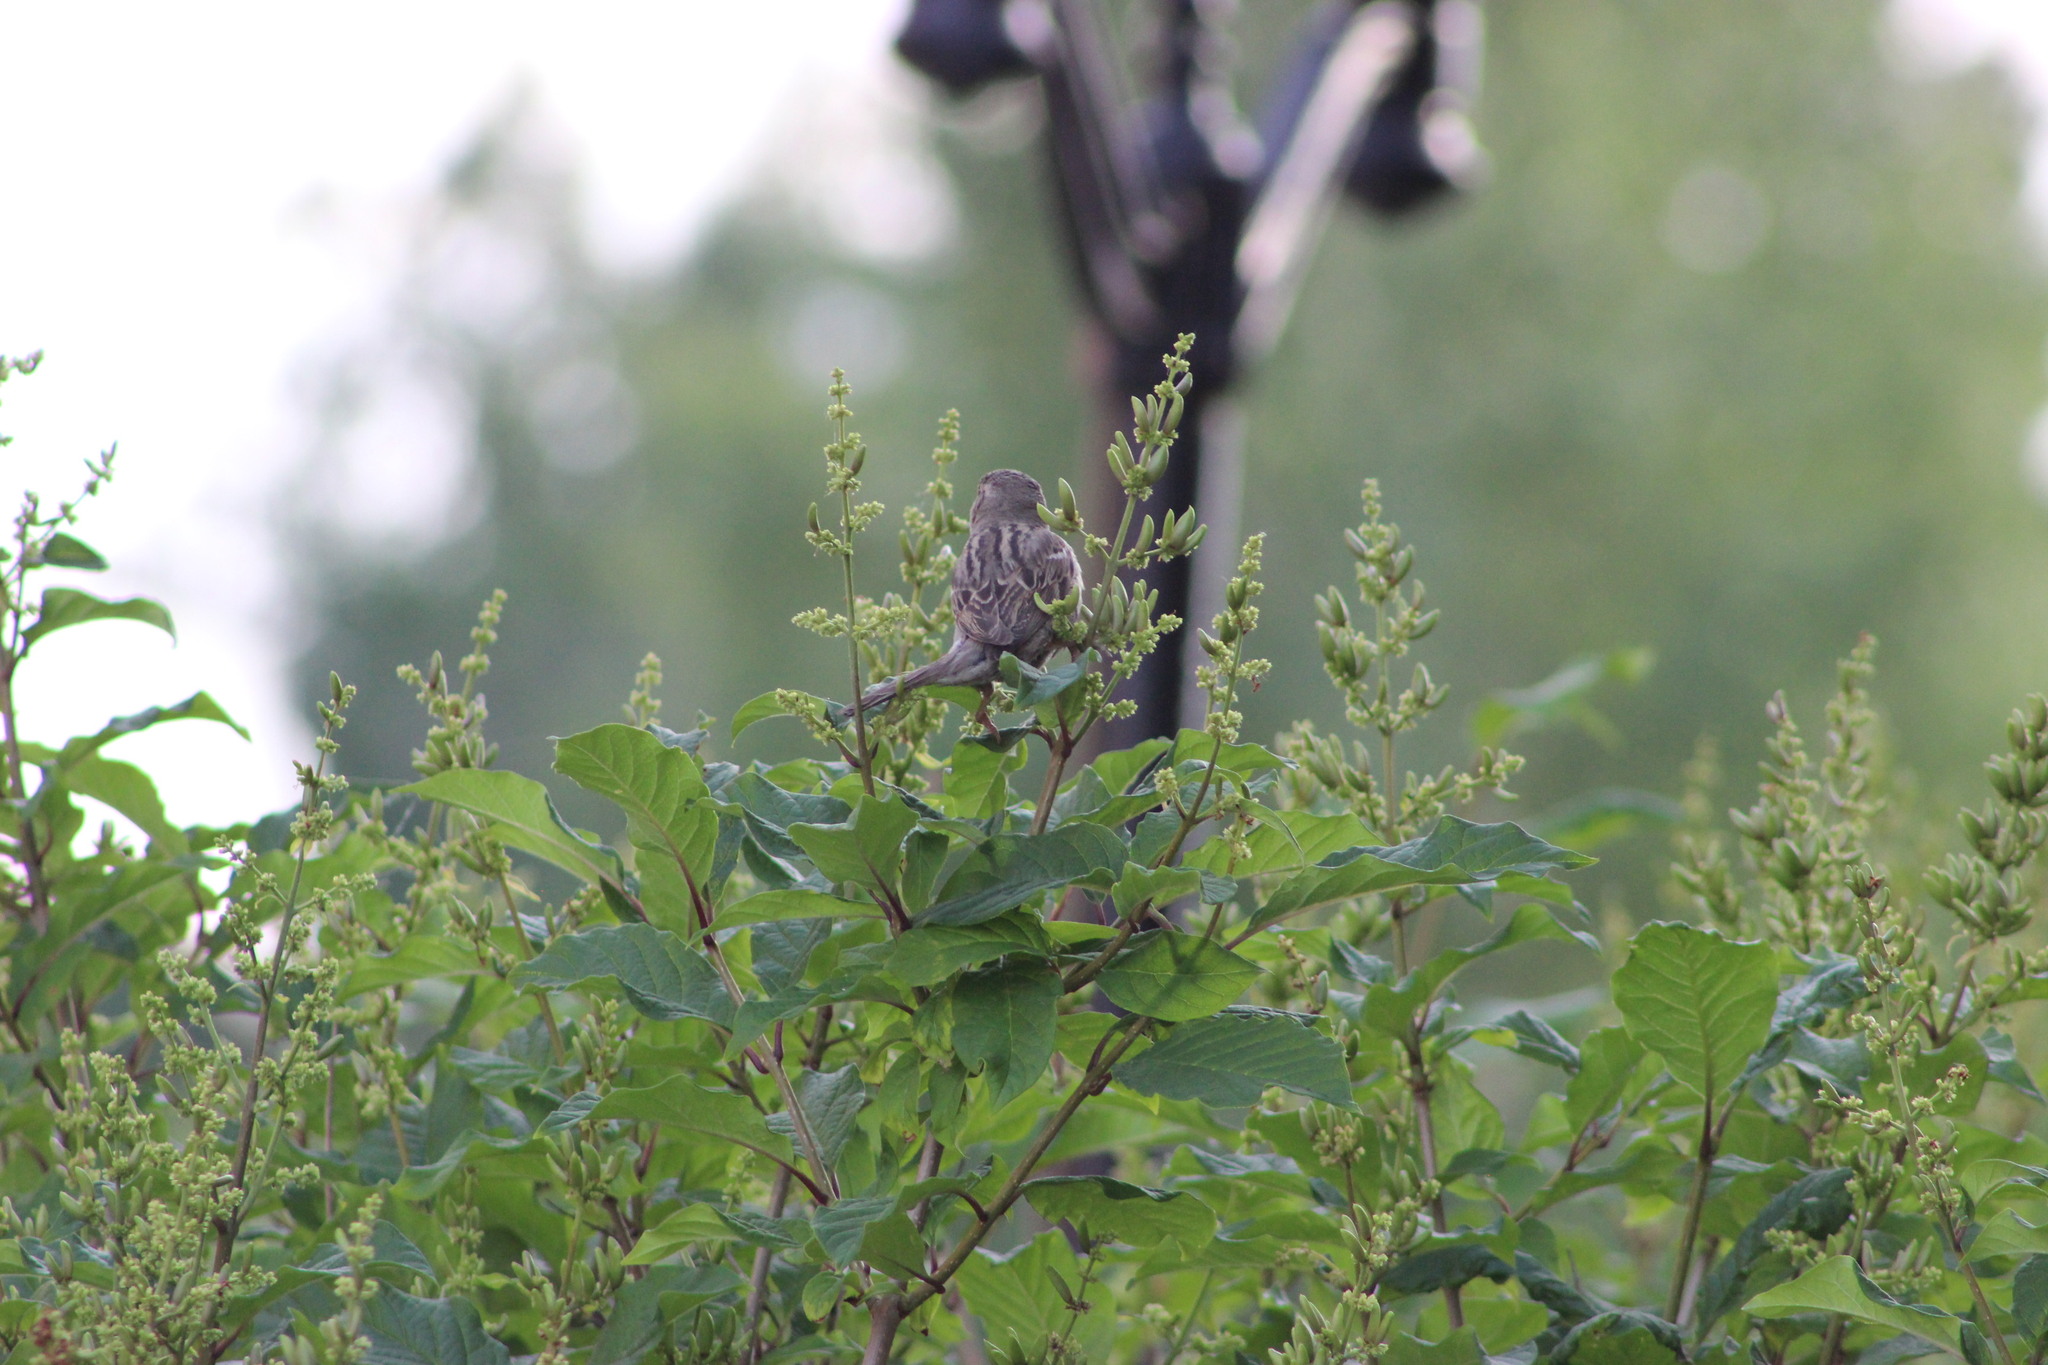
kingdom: Animalia
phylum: Chordata
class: Aves
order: Passeriformes
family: Passeridae
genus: Passer
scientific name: Passer domesticus
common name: House sparrow
